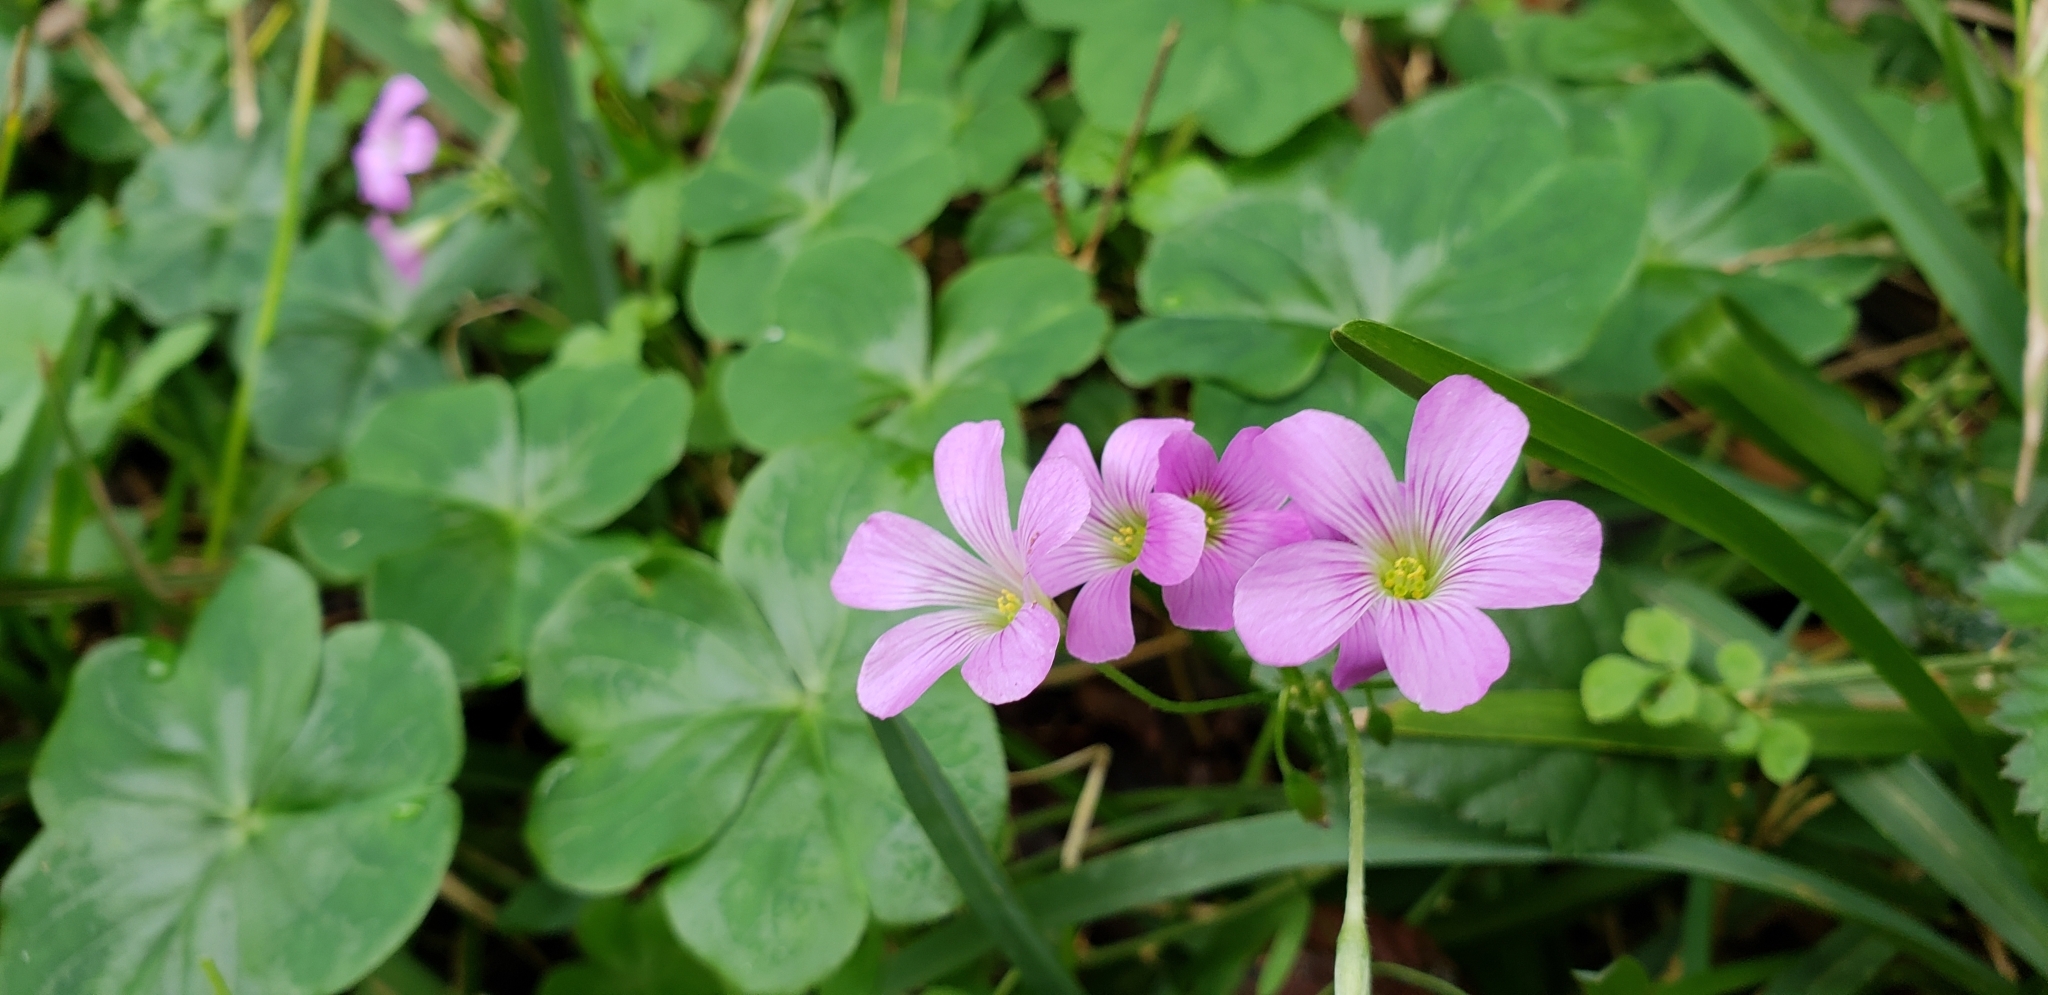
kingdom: Plantae
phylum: Tracheophyta
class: Magnoliopsida
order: Oxalidales
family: Oxalidaceae
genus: Oxalis
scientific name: Oxalis debilis
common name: Large-flowered pink-sorrel
